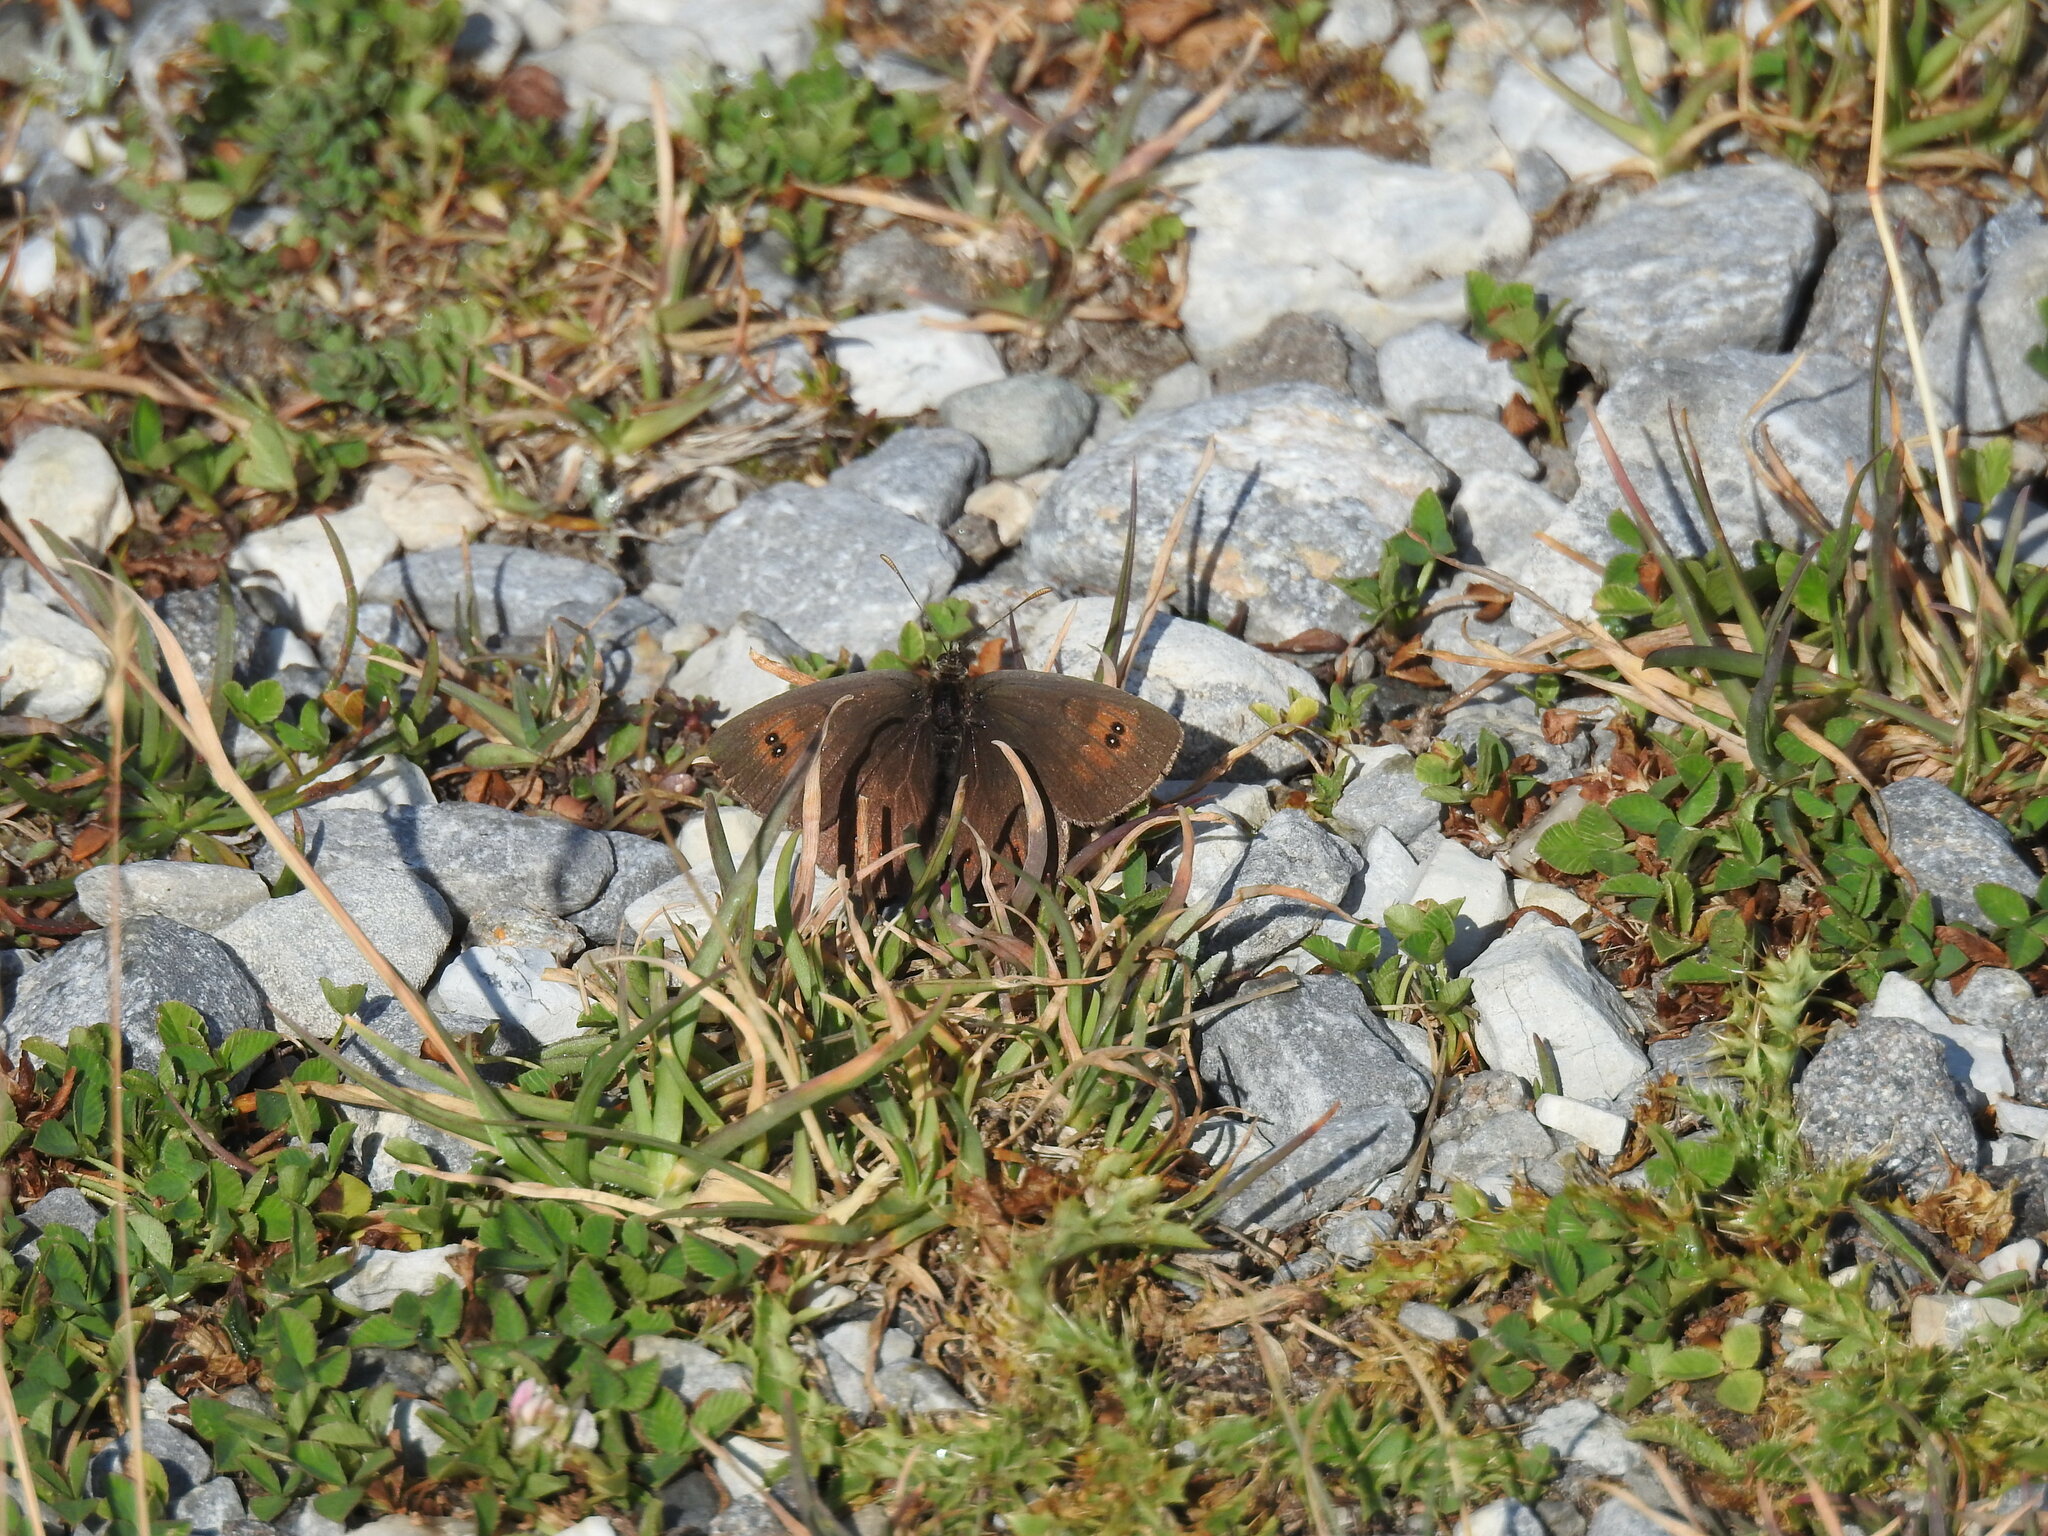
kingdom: Animalia
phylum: Arthropoda
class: Insecta
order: Lepidoptera
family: Nymphalidae
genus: Erebia
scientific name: Erebia cassioides
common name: Common brassy ringlet
